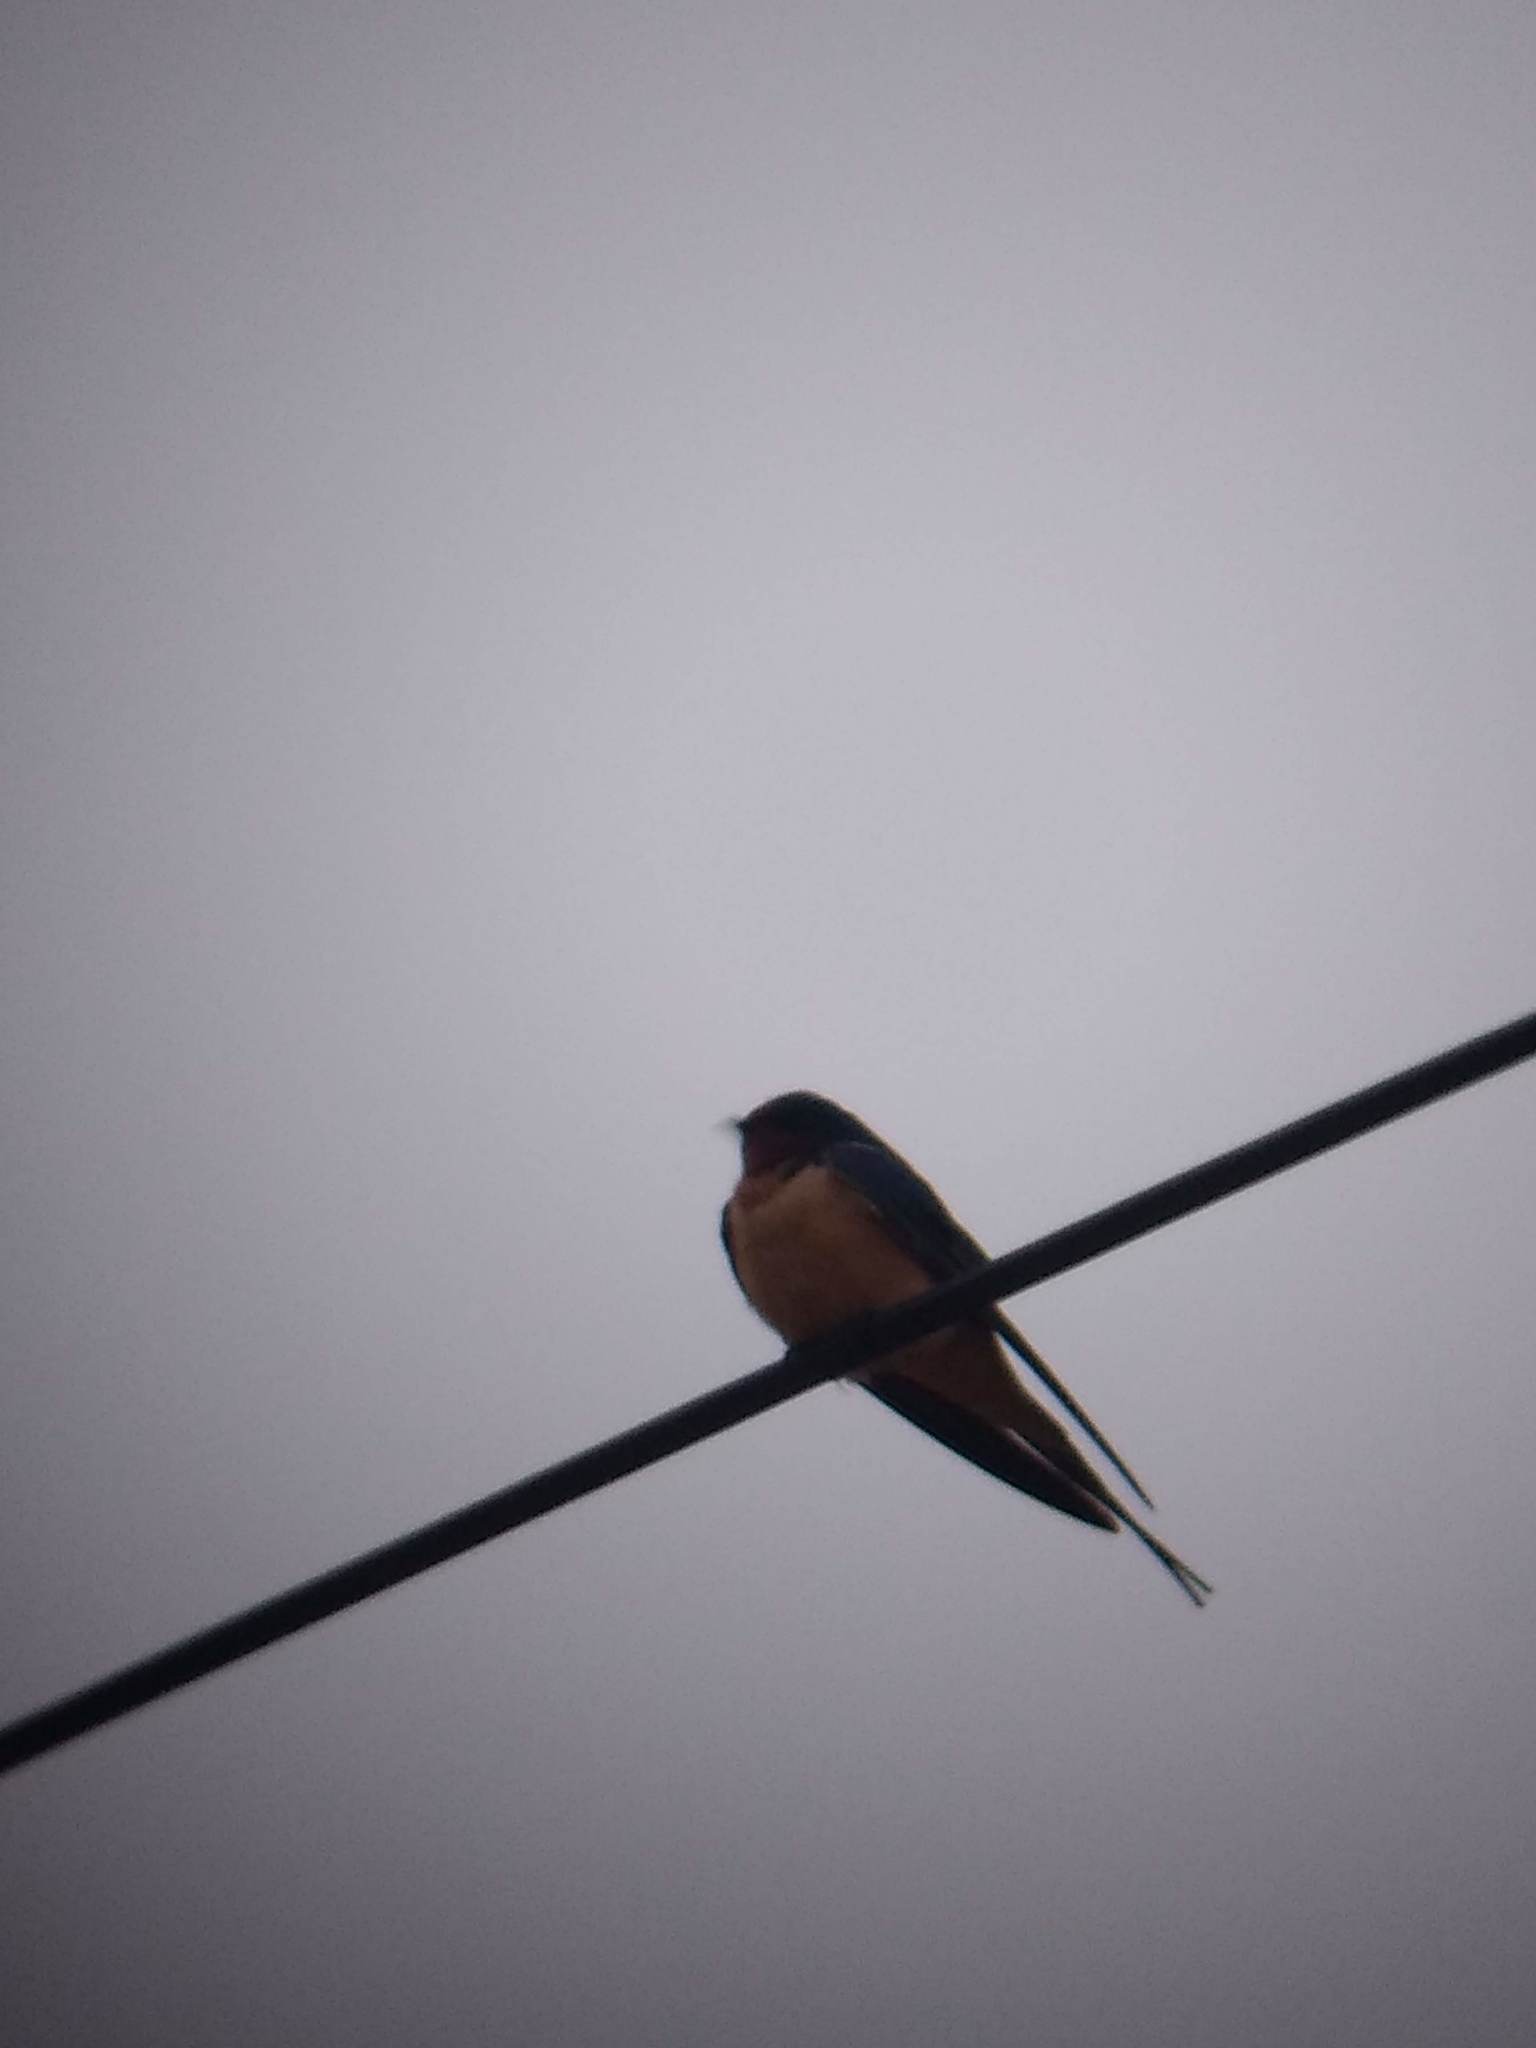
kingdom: Animalia
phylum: Chordata
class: Aves
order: Passeriformes
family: Hirundinidae
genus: Hirundo
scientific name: Hirundo rustica
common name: Barn swallow
